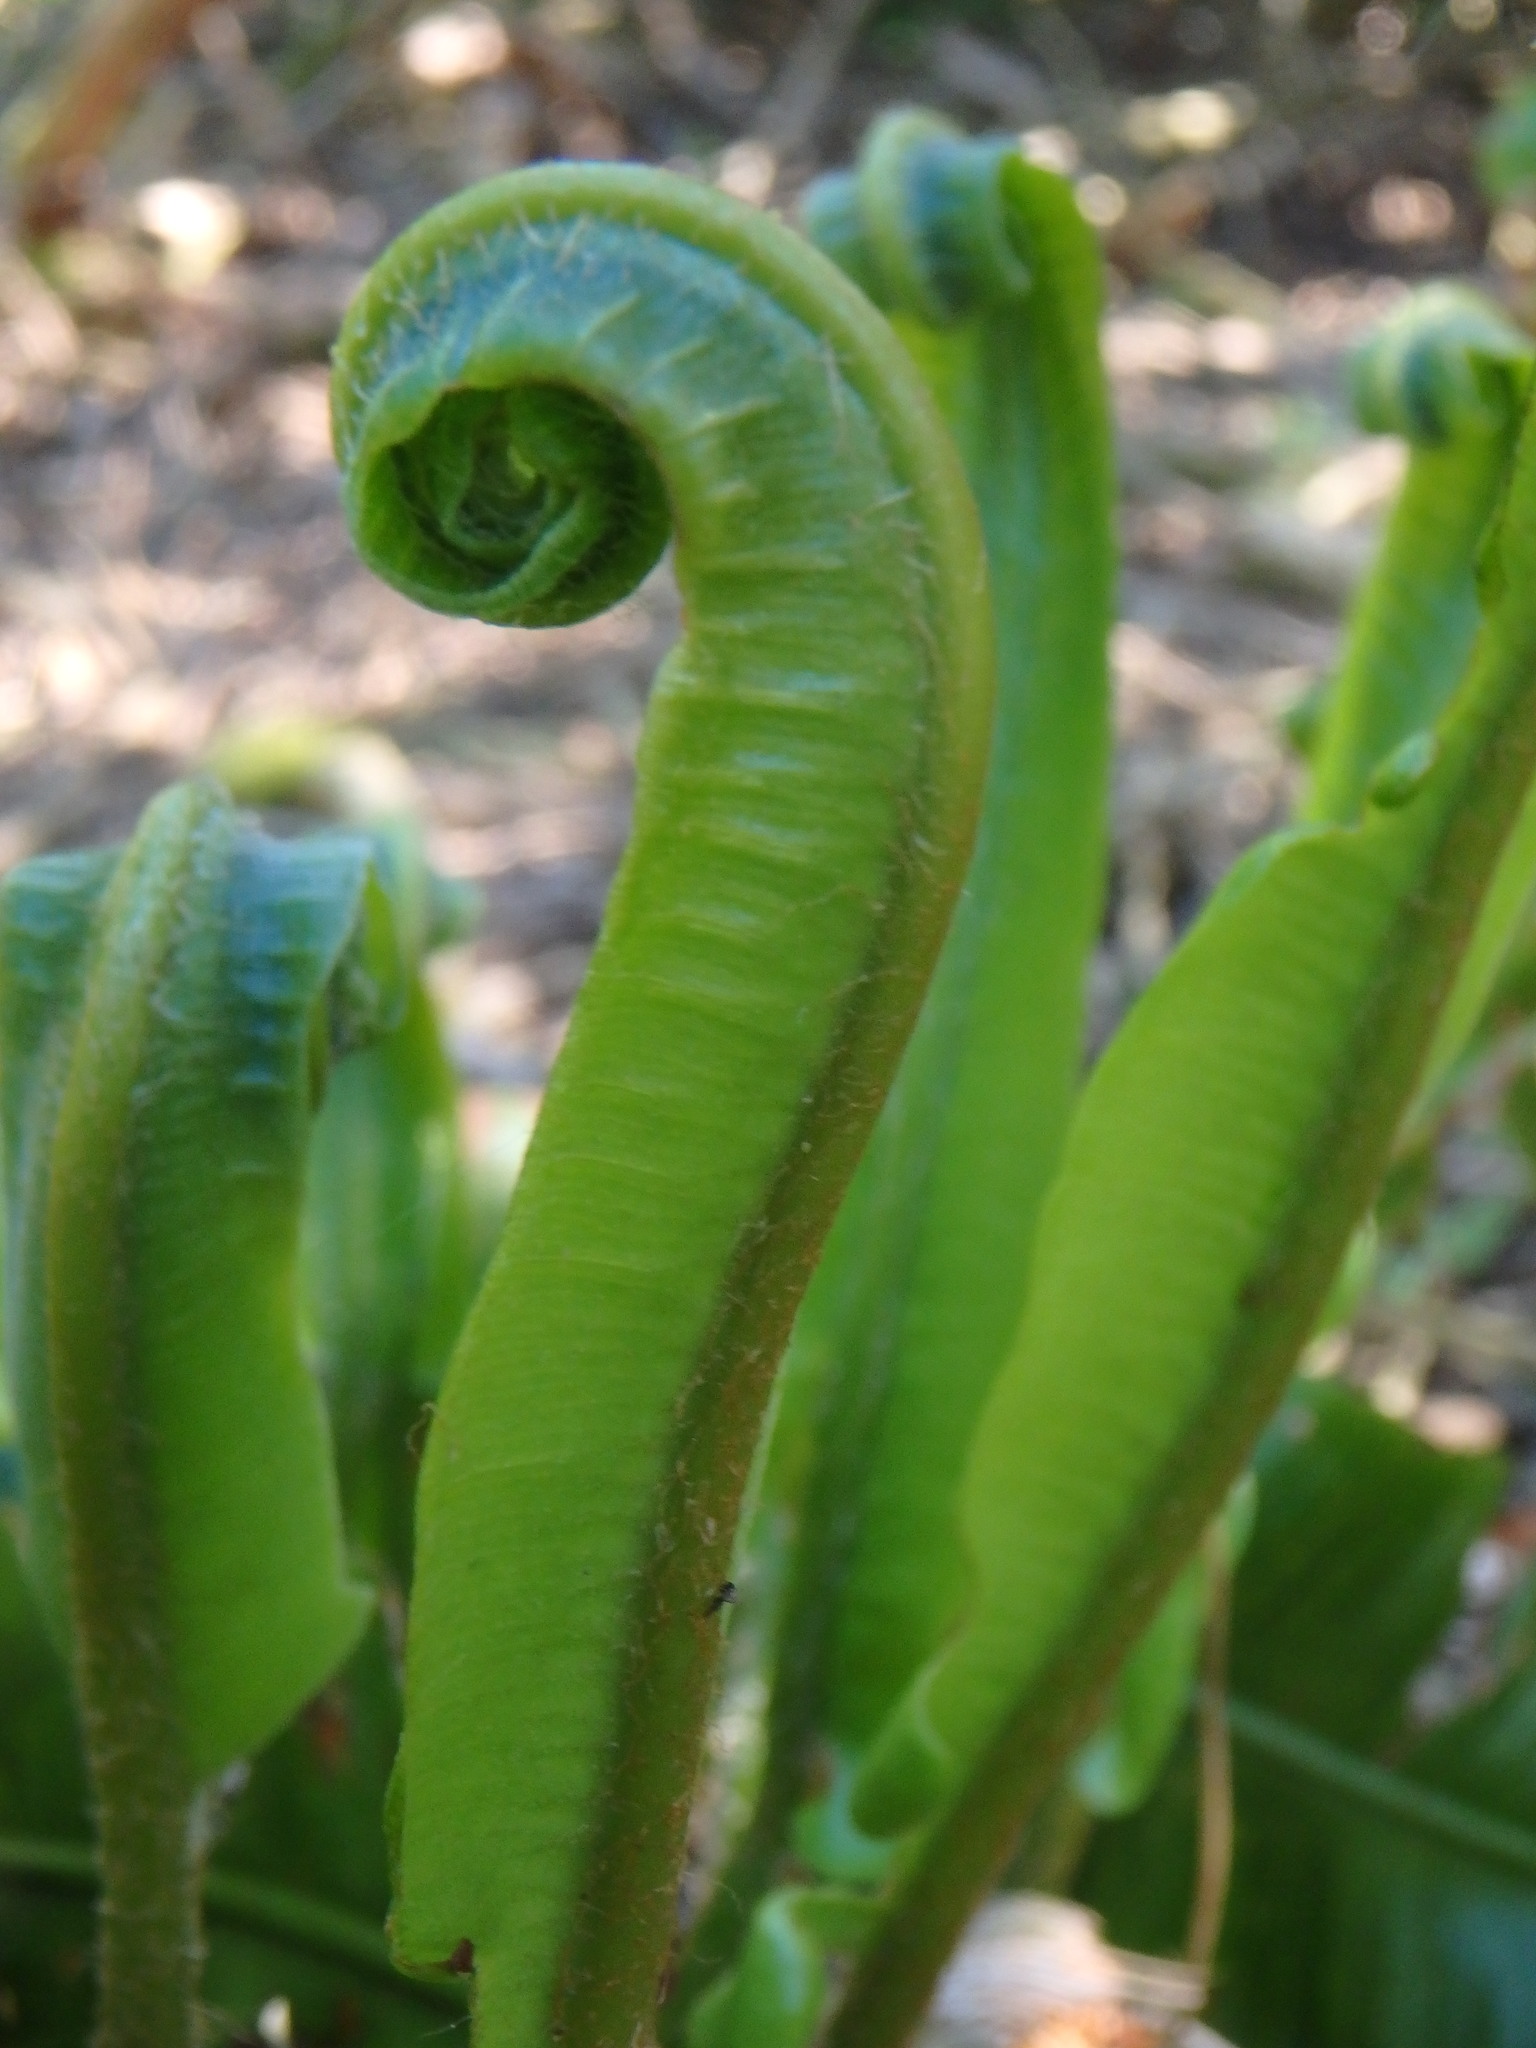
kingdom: Plantae
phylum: Tracheophyta
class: Polypodiopsida
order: Polypodiales
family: Aspleniaceae
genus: Asplenium
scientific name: Asplenium scolopendrium
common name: Hart's-tongue fern
